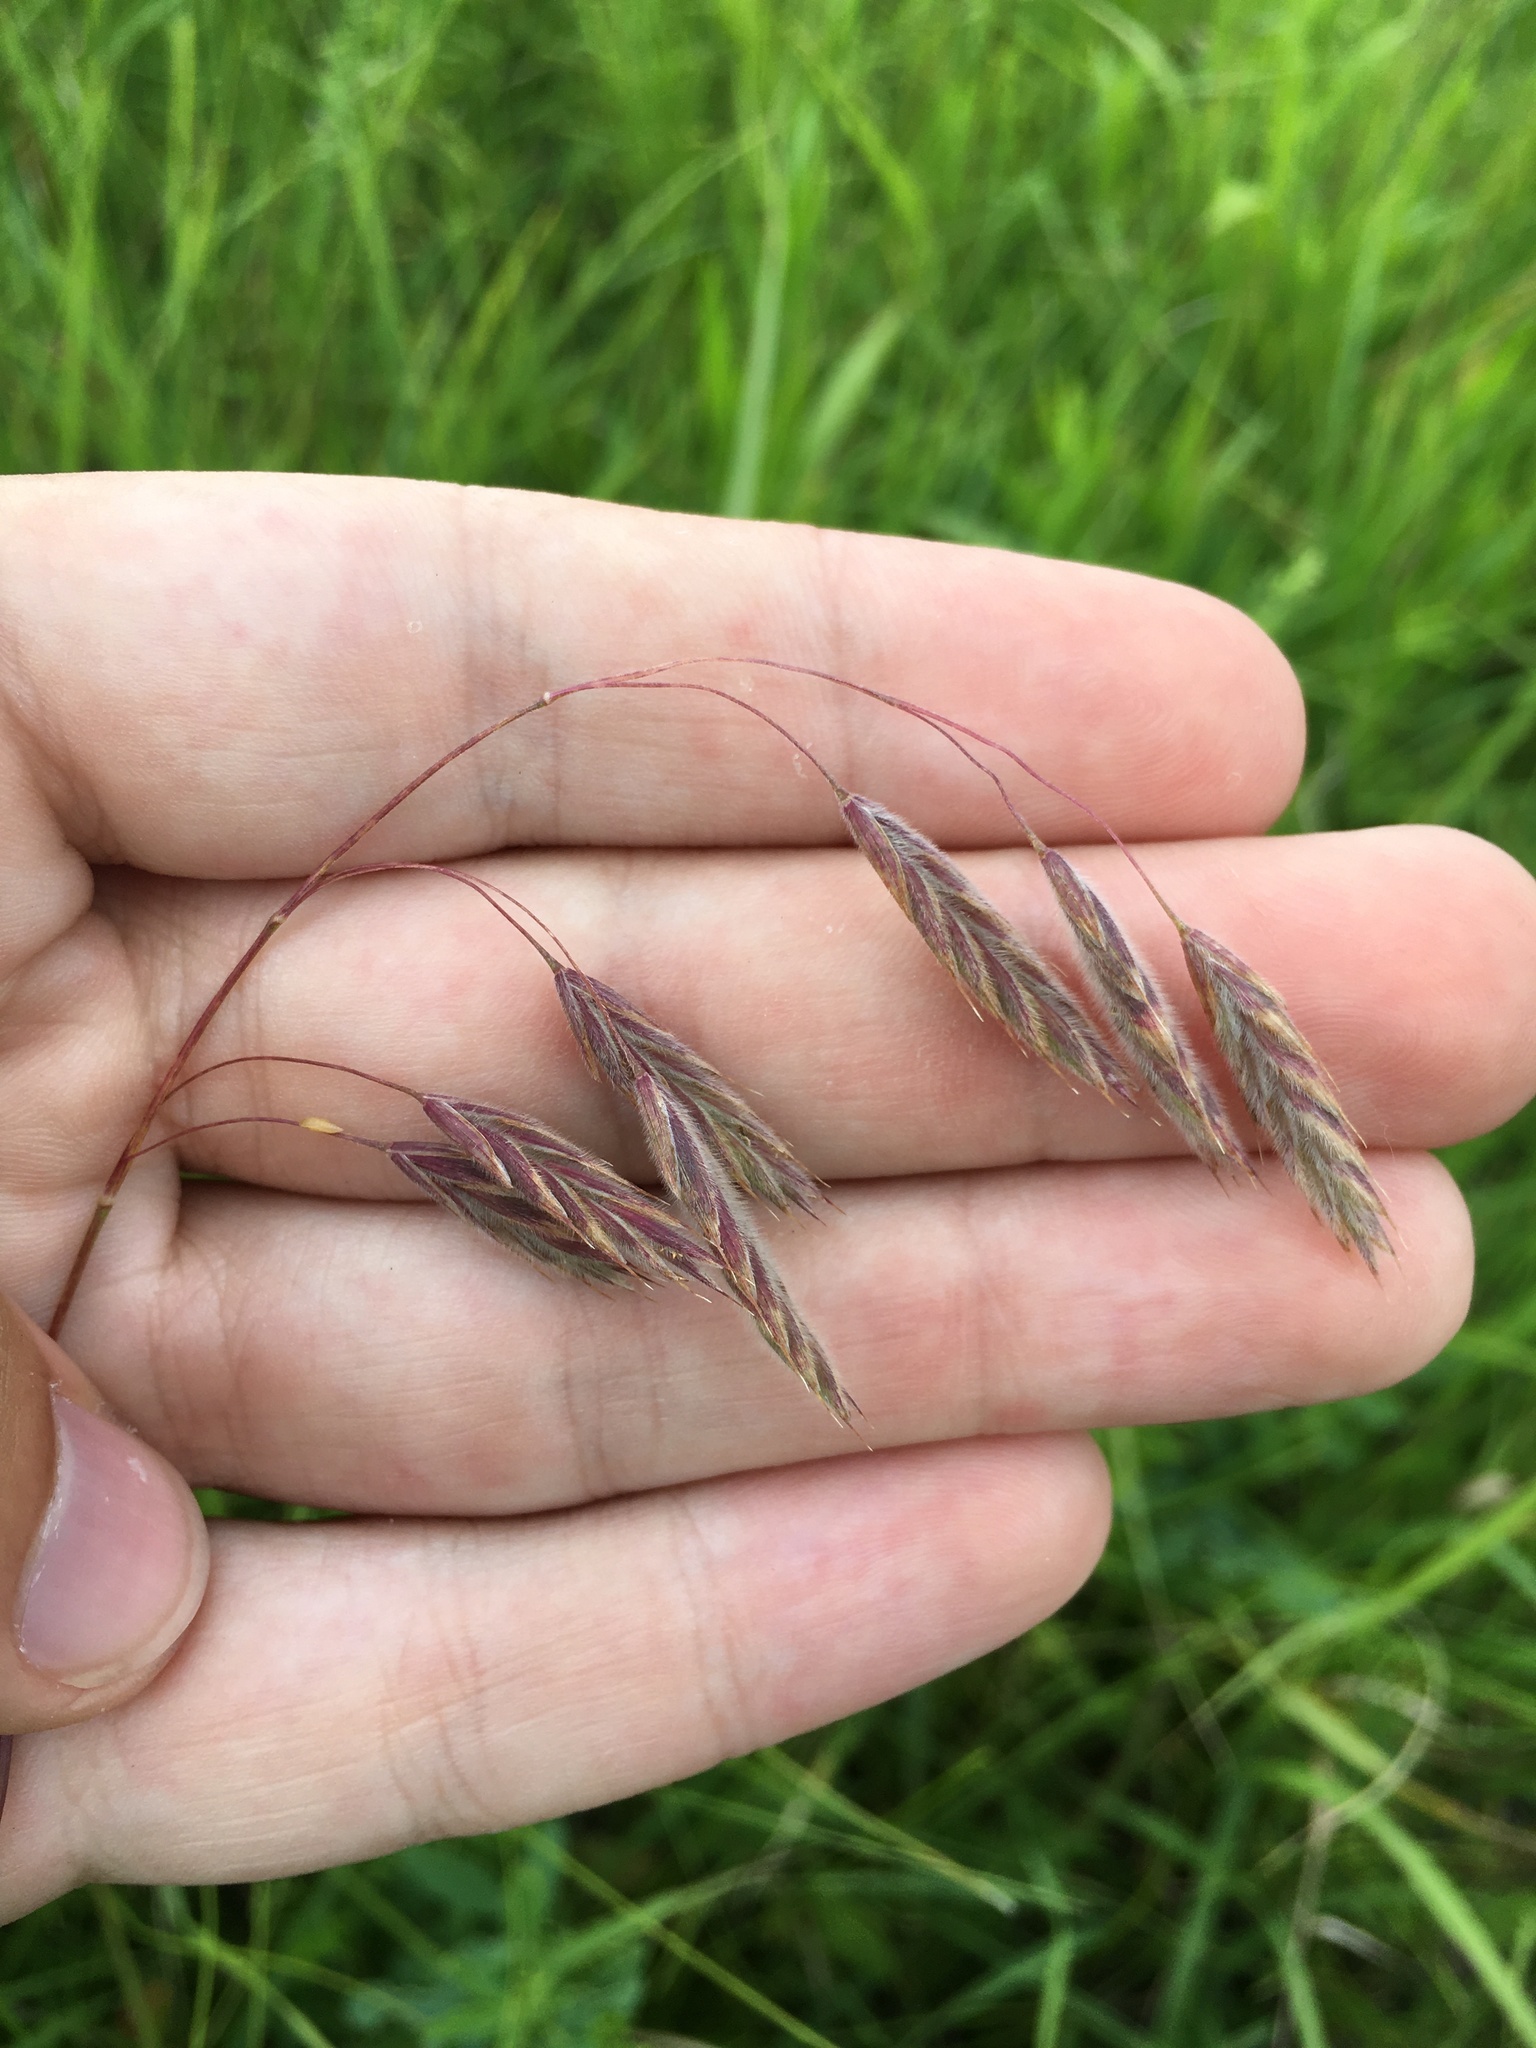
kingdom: Plantae
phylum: Tracheophyta
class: Liliopsida
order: Poales
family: Poaceae
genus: Bromus
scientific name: Bromus kalmii
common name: Kalm brome
